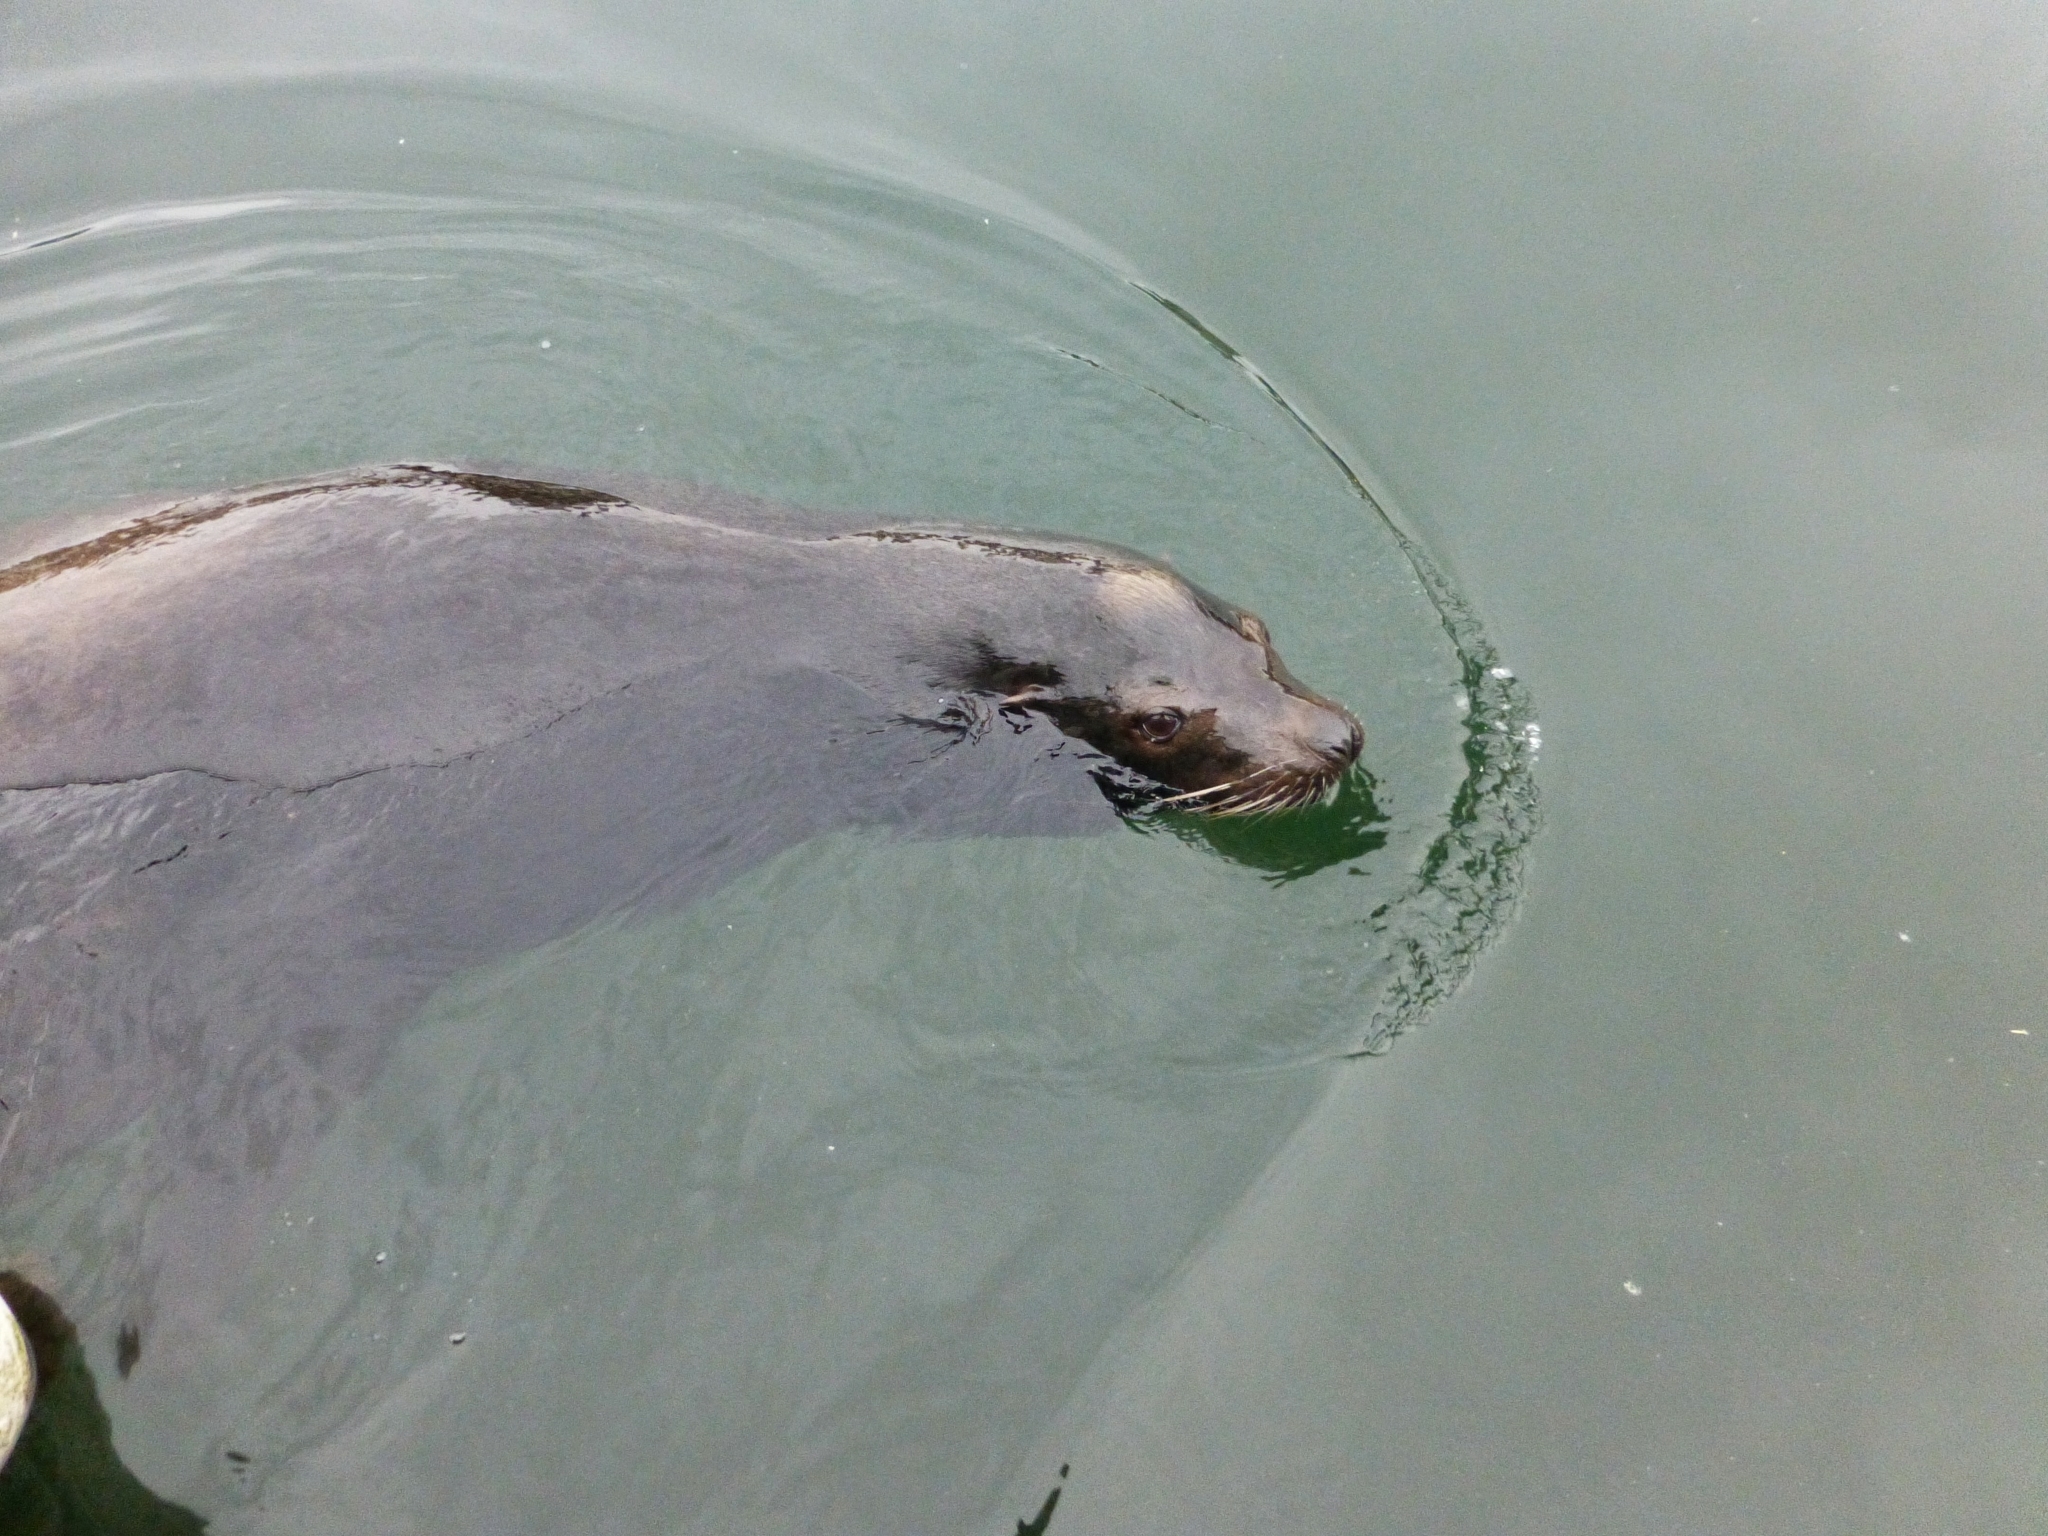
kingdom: Animalia
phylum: Chordata
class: Mammalia
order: Carnivora
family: Otariidae
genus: Zalophus
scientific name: Zalophus californianus
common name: California sea lion
